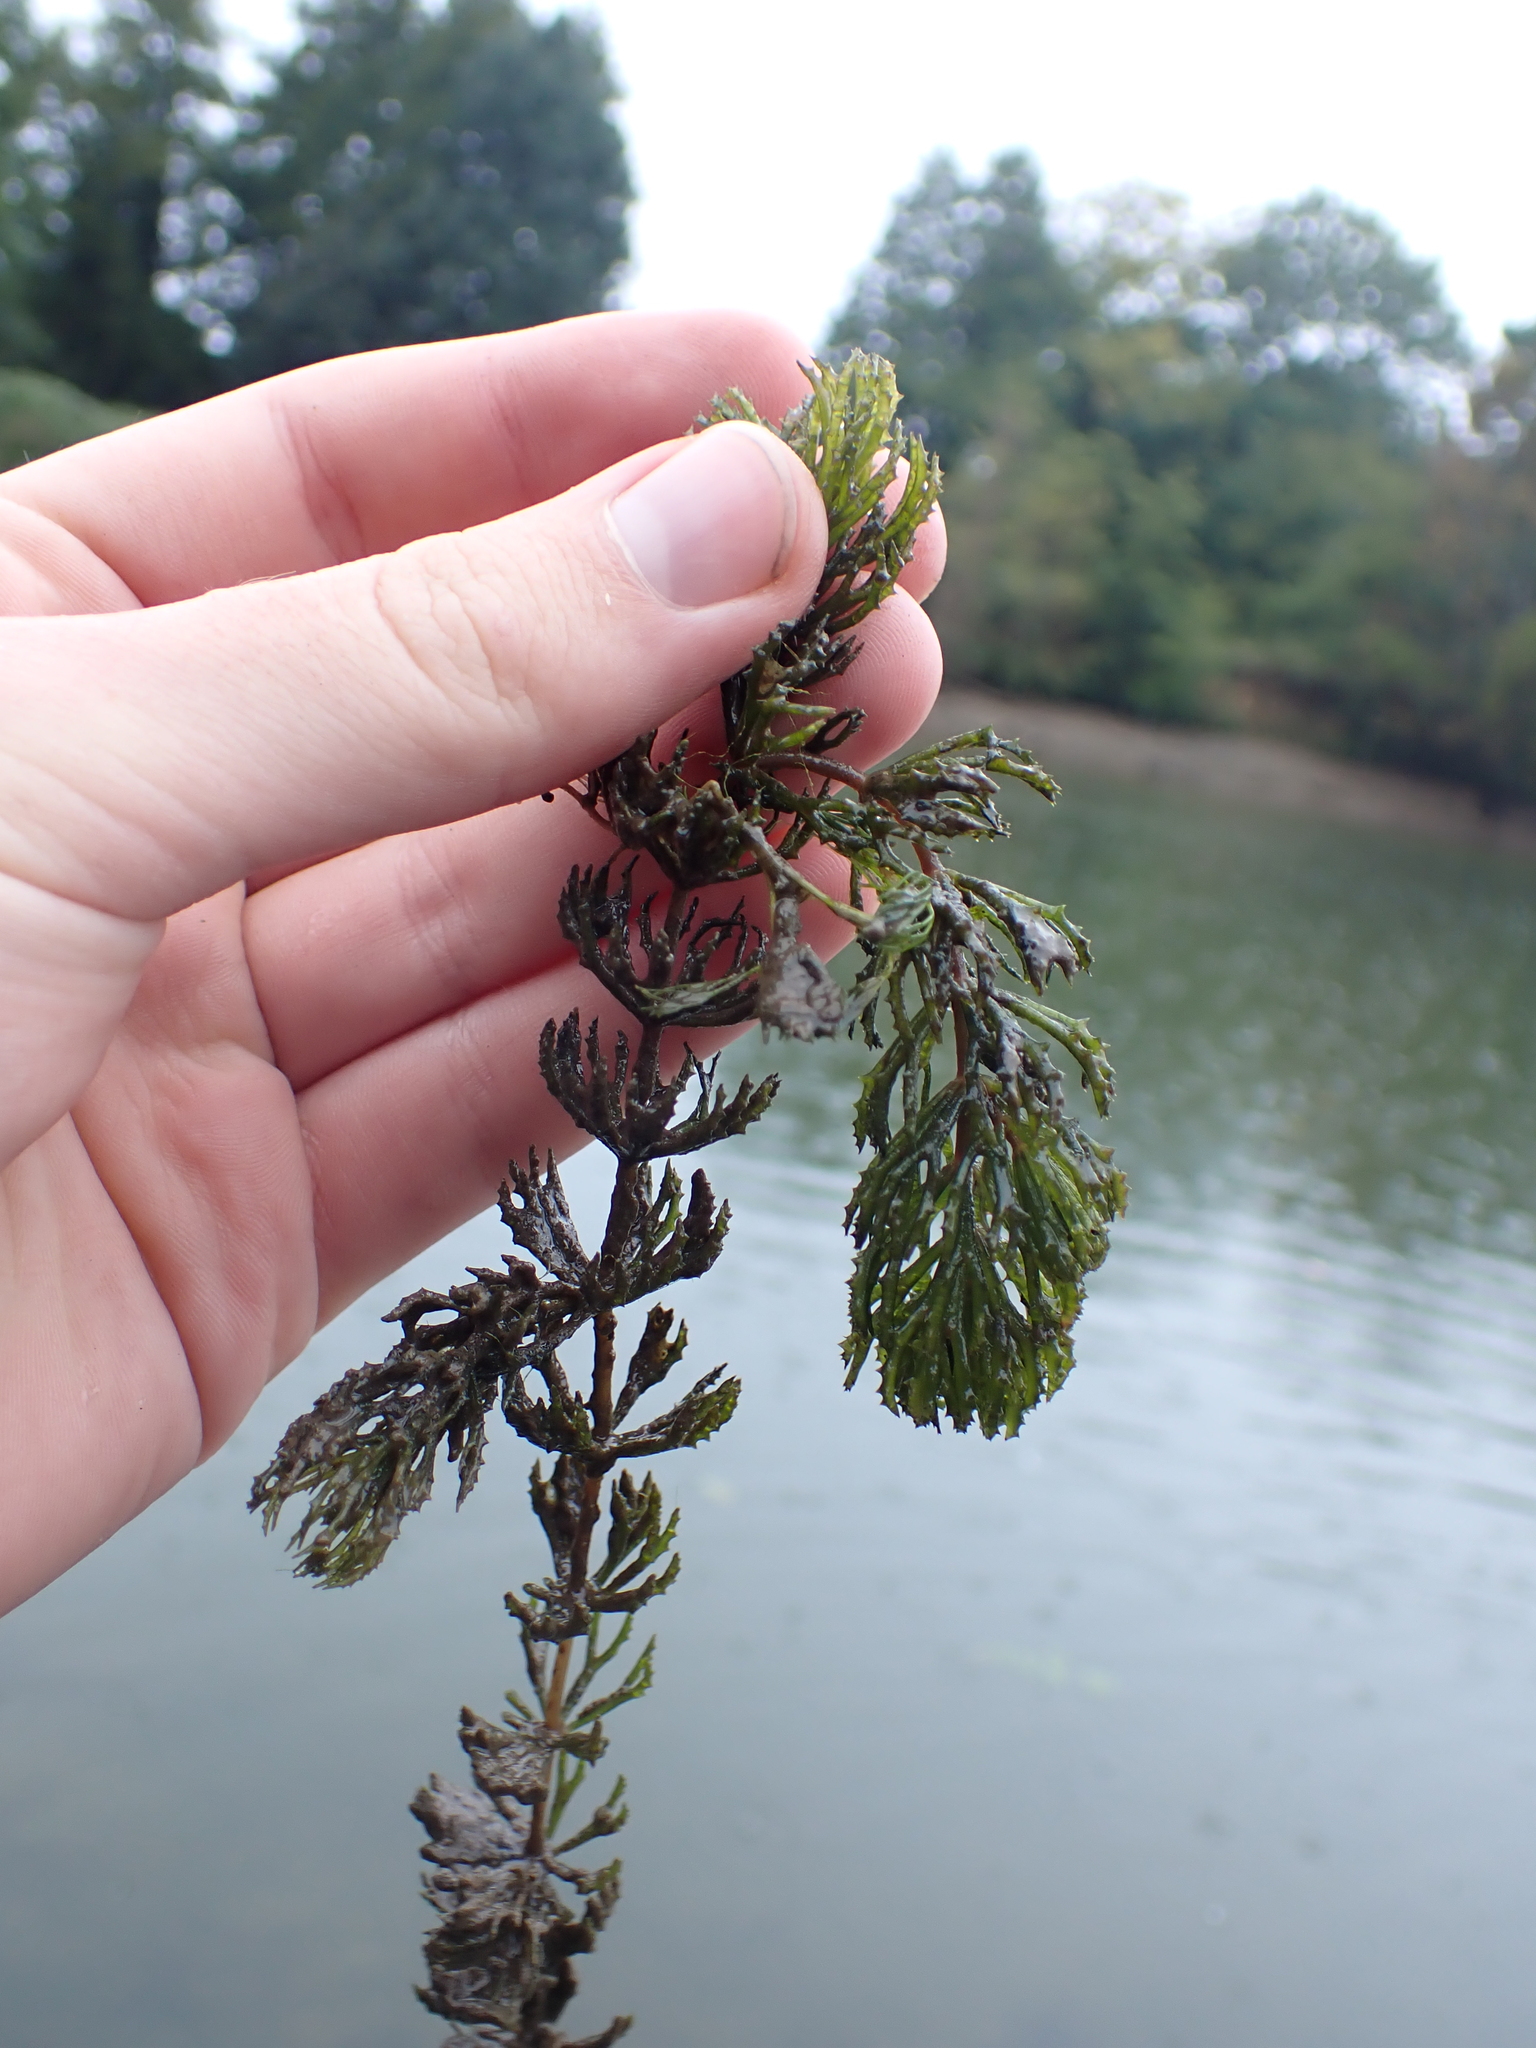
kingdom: Plantae
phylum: Tracheophyta
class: Magnoliopsida
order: Ceratophyllales
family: Ceratophyllaceae
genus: Ceratophyllum
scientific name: Ceratophyllum demersum
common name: Rigid hornwort
